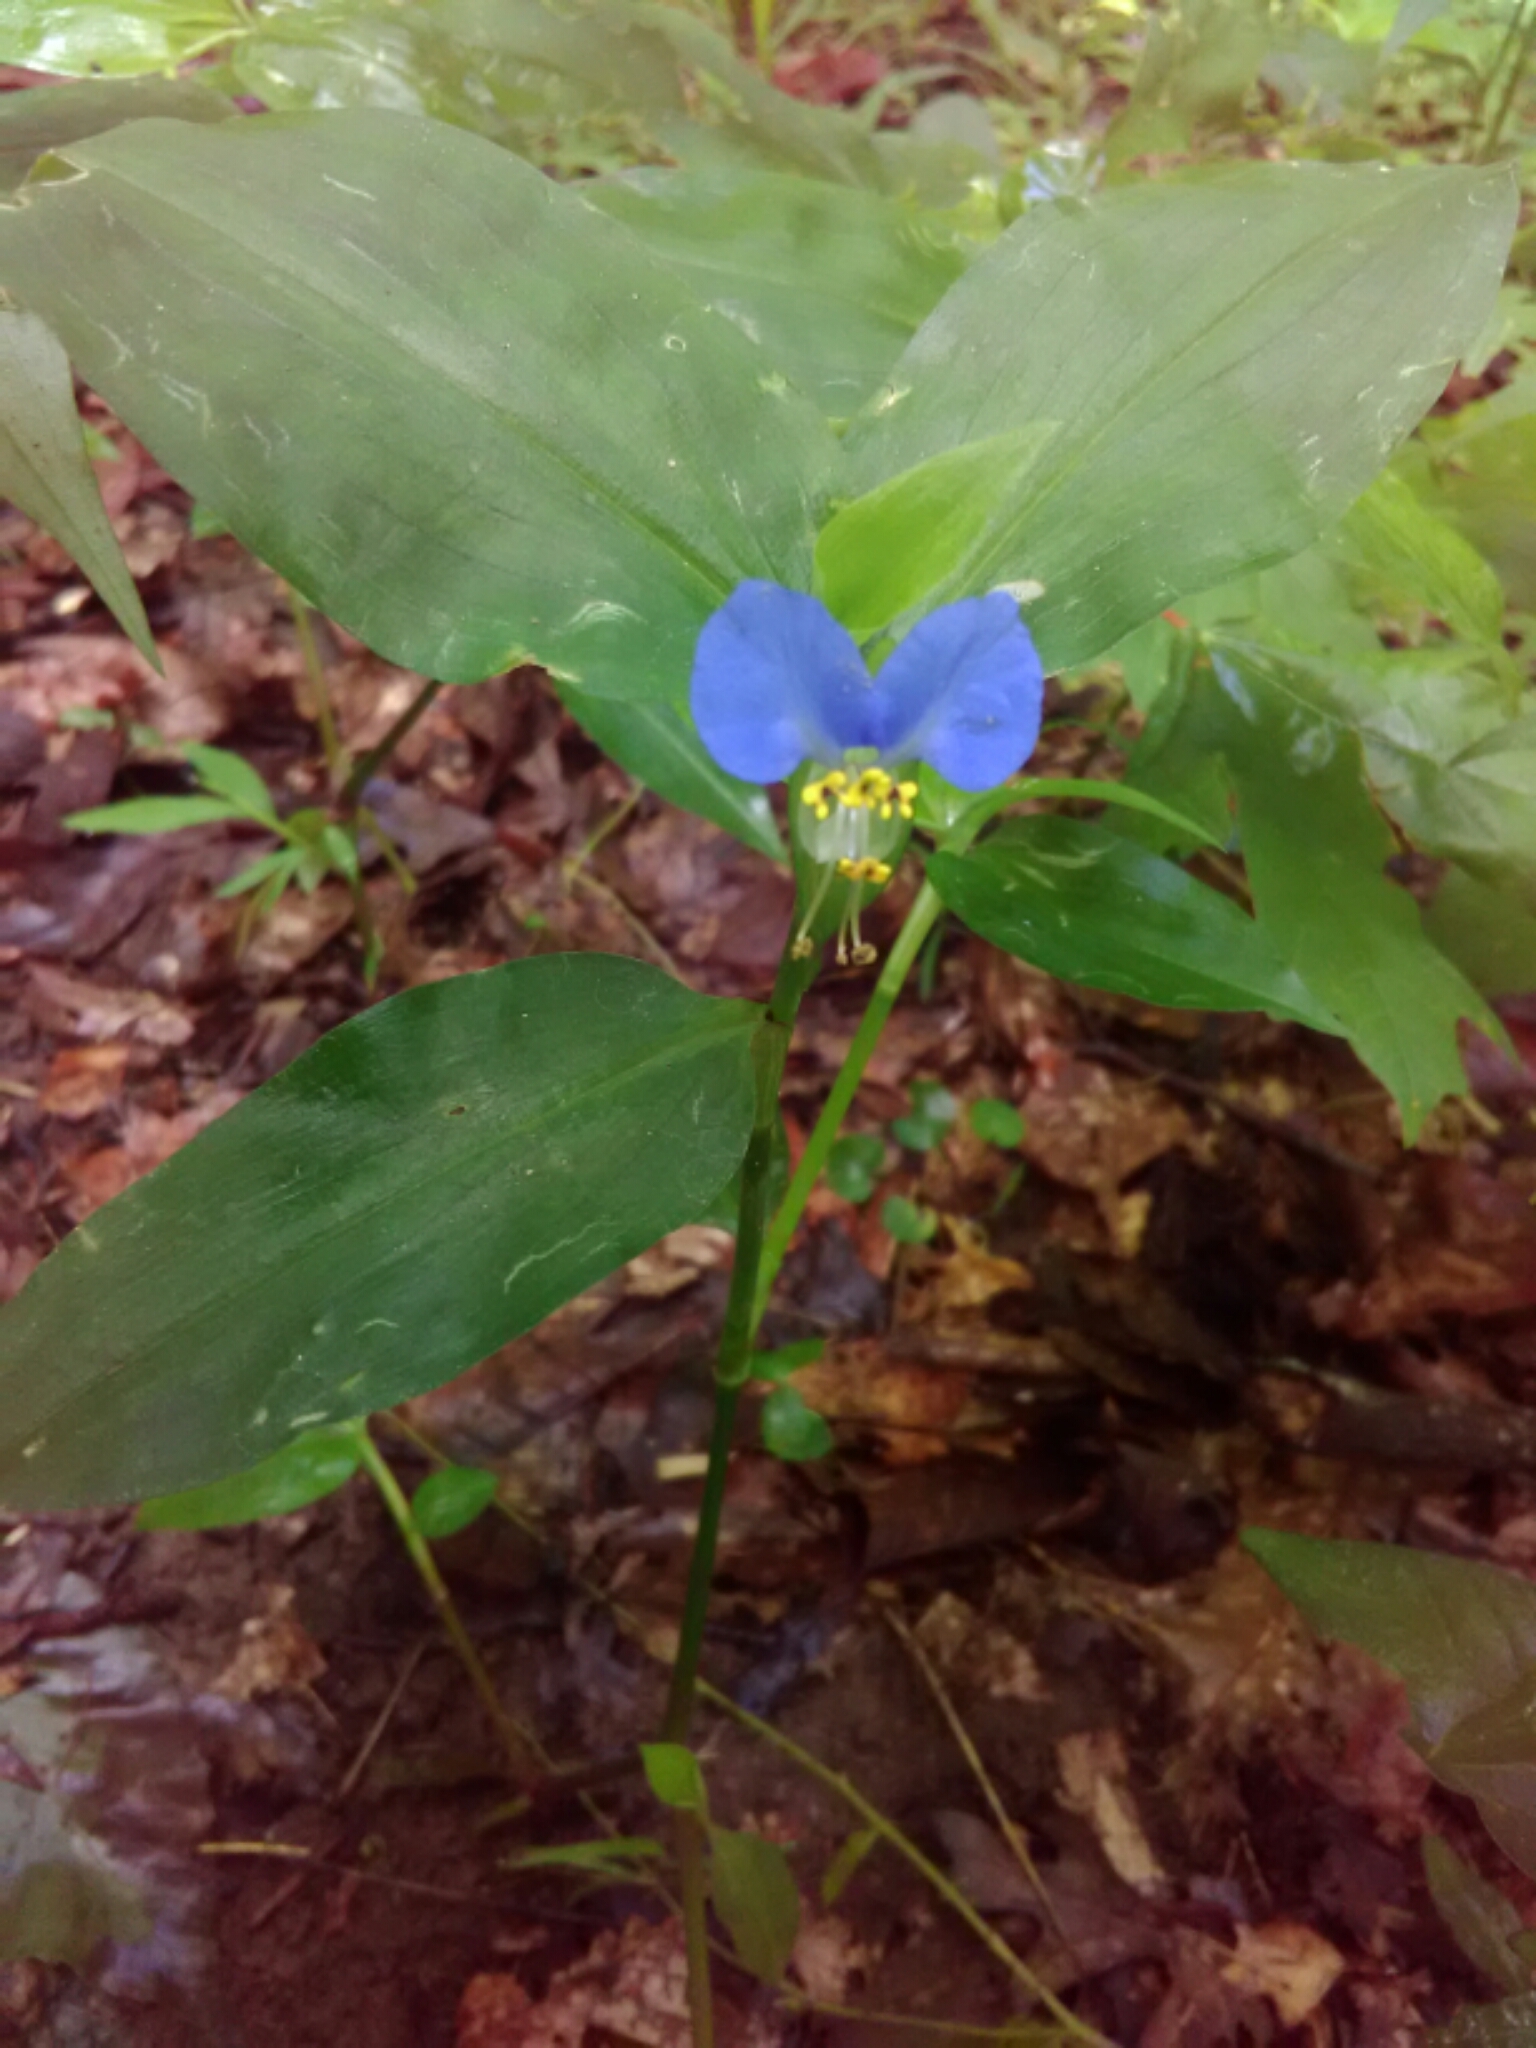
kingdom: Plantae
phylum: Tracheophyta
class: Liliopsida
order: Commelinales
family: Commelinaceae
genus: Commelina
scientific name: Commelina communis
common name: Asiatic dayflower
